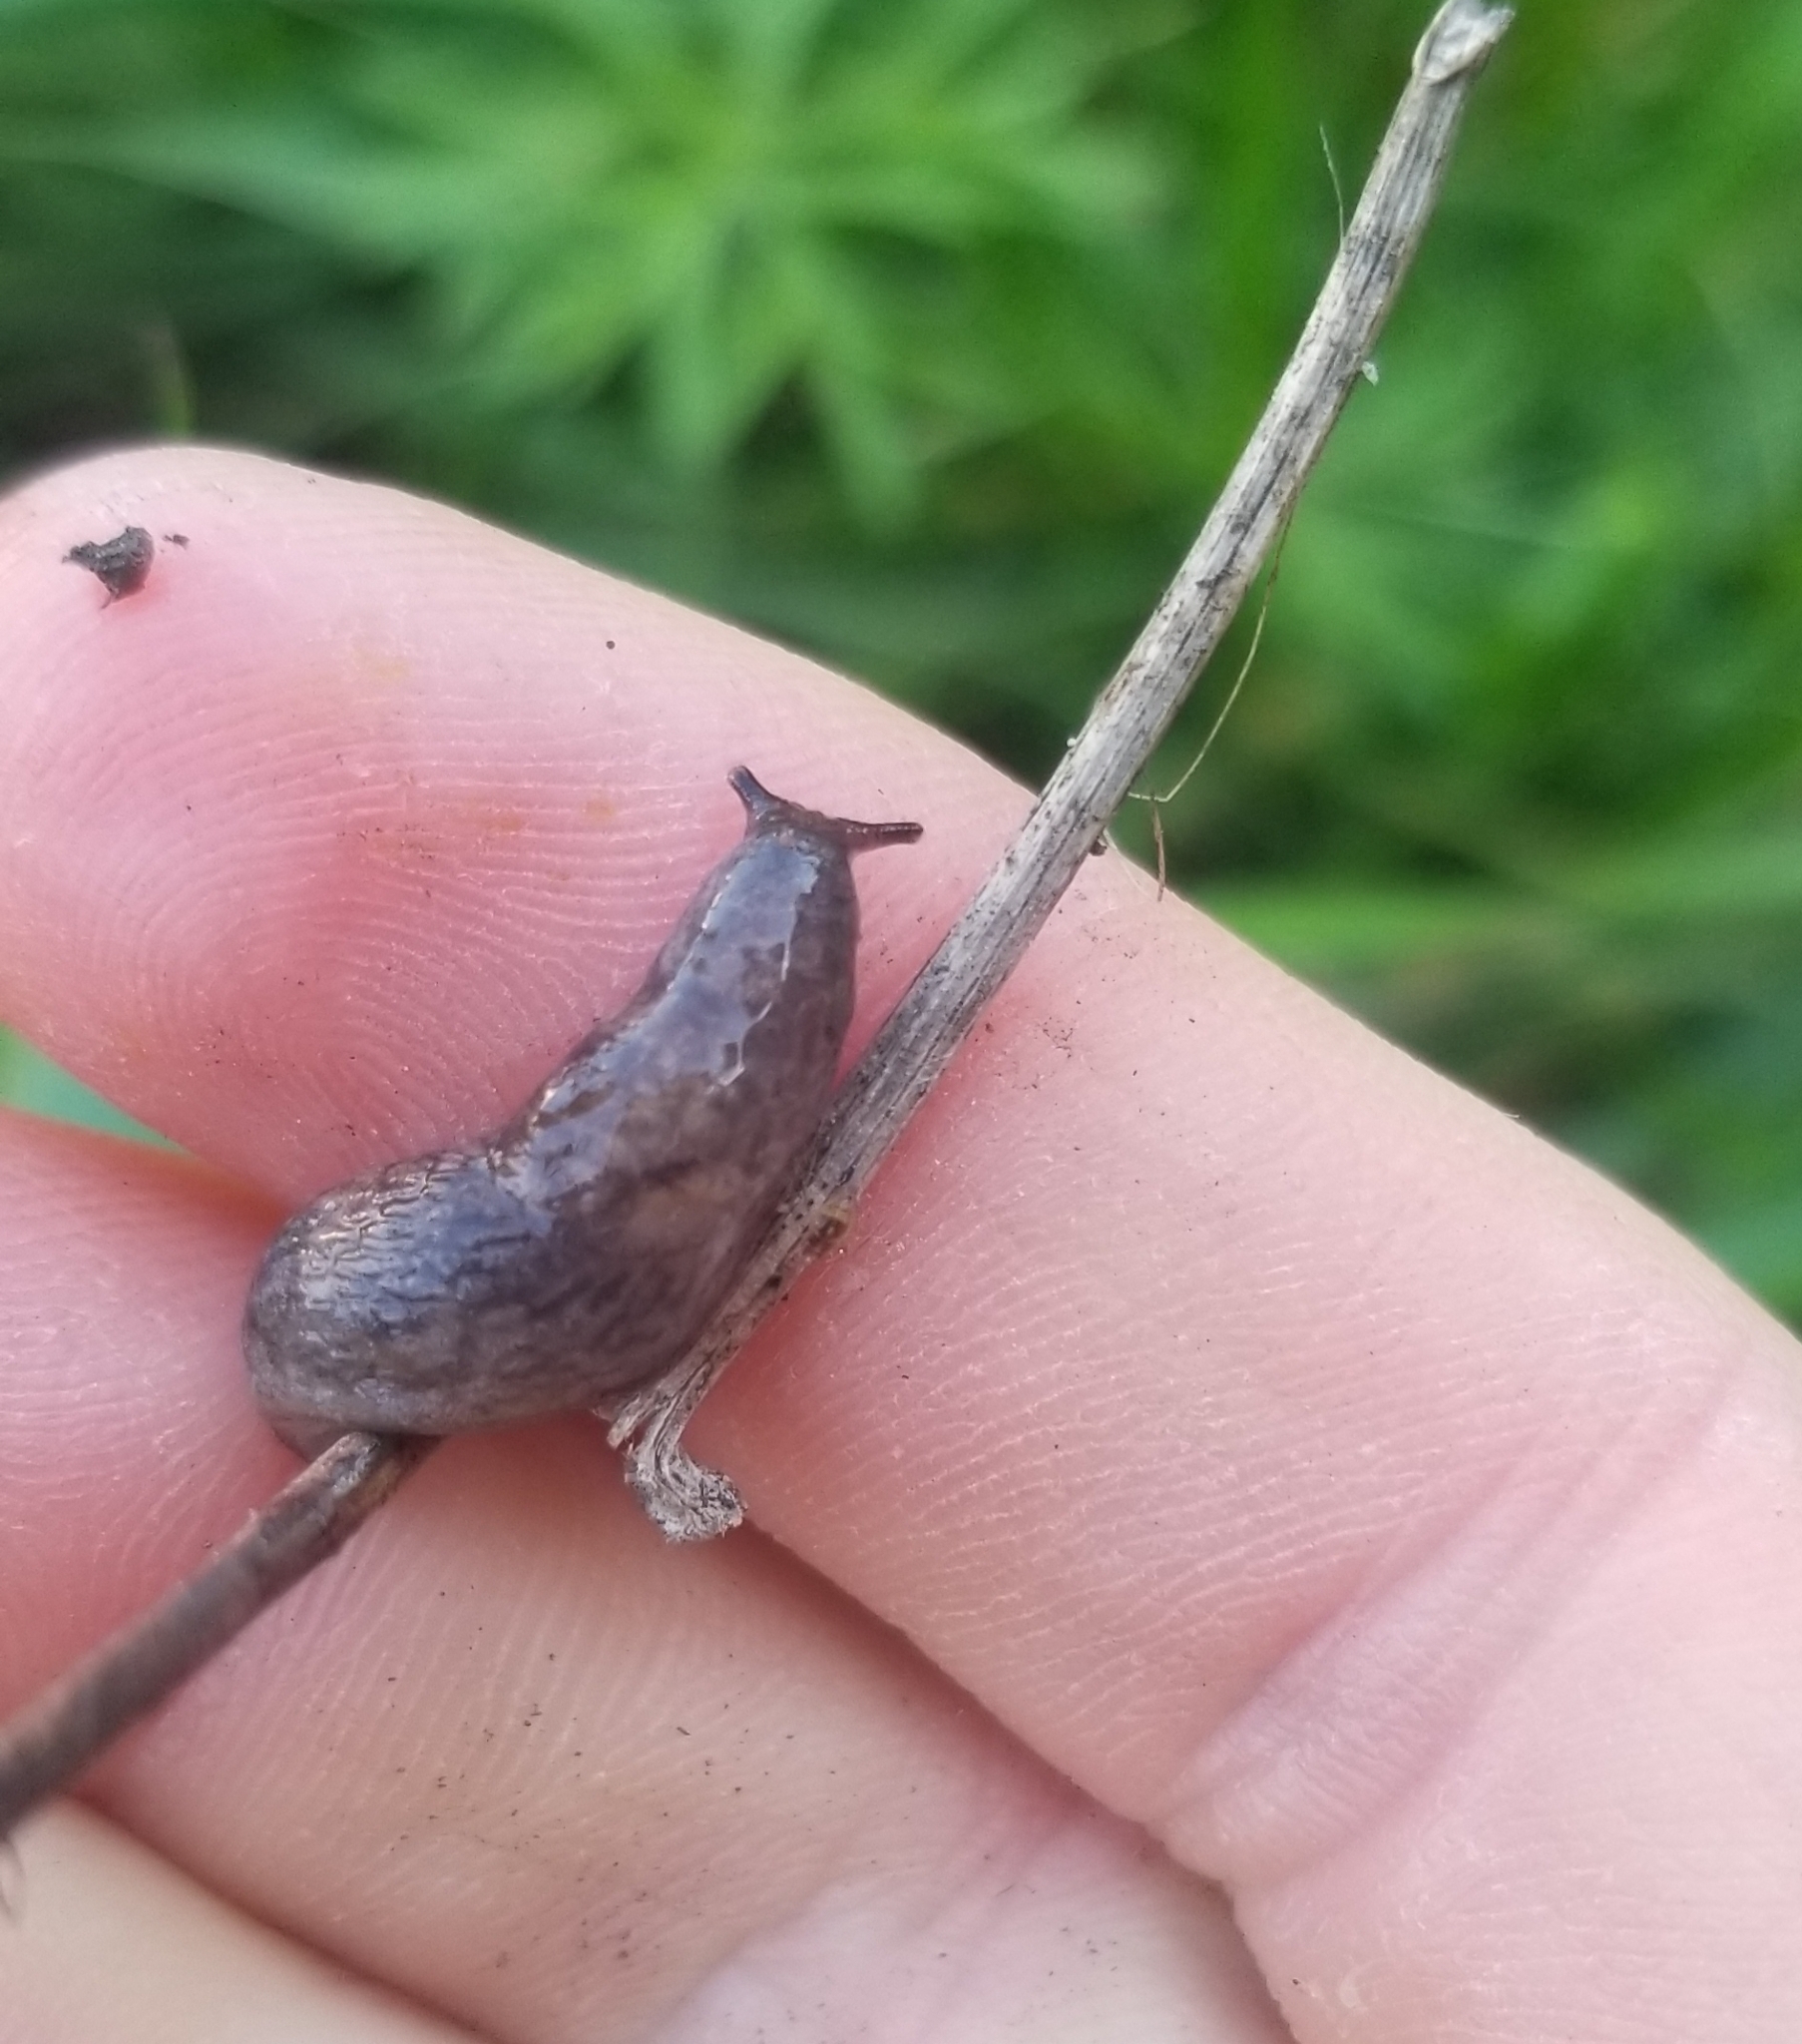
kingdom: Animalia
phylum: Mollusca
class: Gastropoda
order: Stylommatophora
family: Agriolimacidae
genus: Deroceras
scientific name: Deroceras reticulatum
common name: Gray field slug
